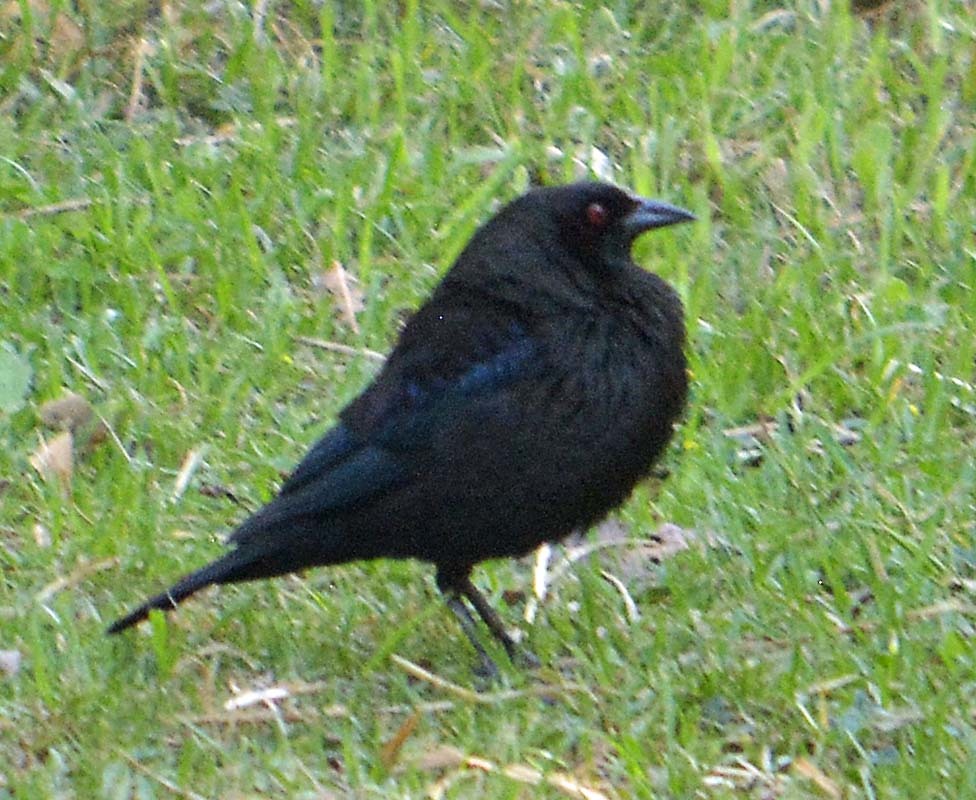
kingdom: Animalia
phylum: Chordata
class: Aves
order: Passeriformes
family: Icteridae
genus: Molothrus
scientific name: Molothrus aeneus
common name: Bronzed cowbird
